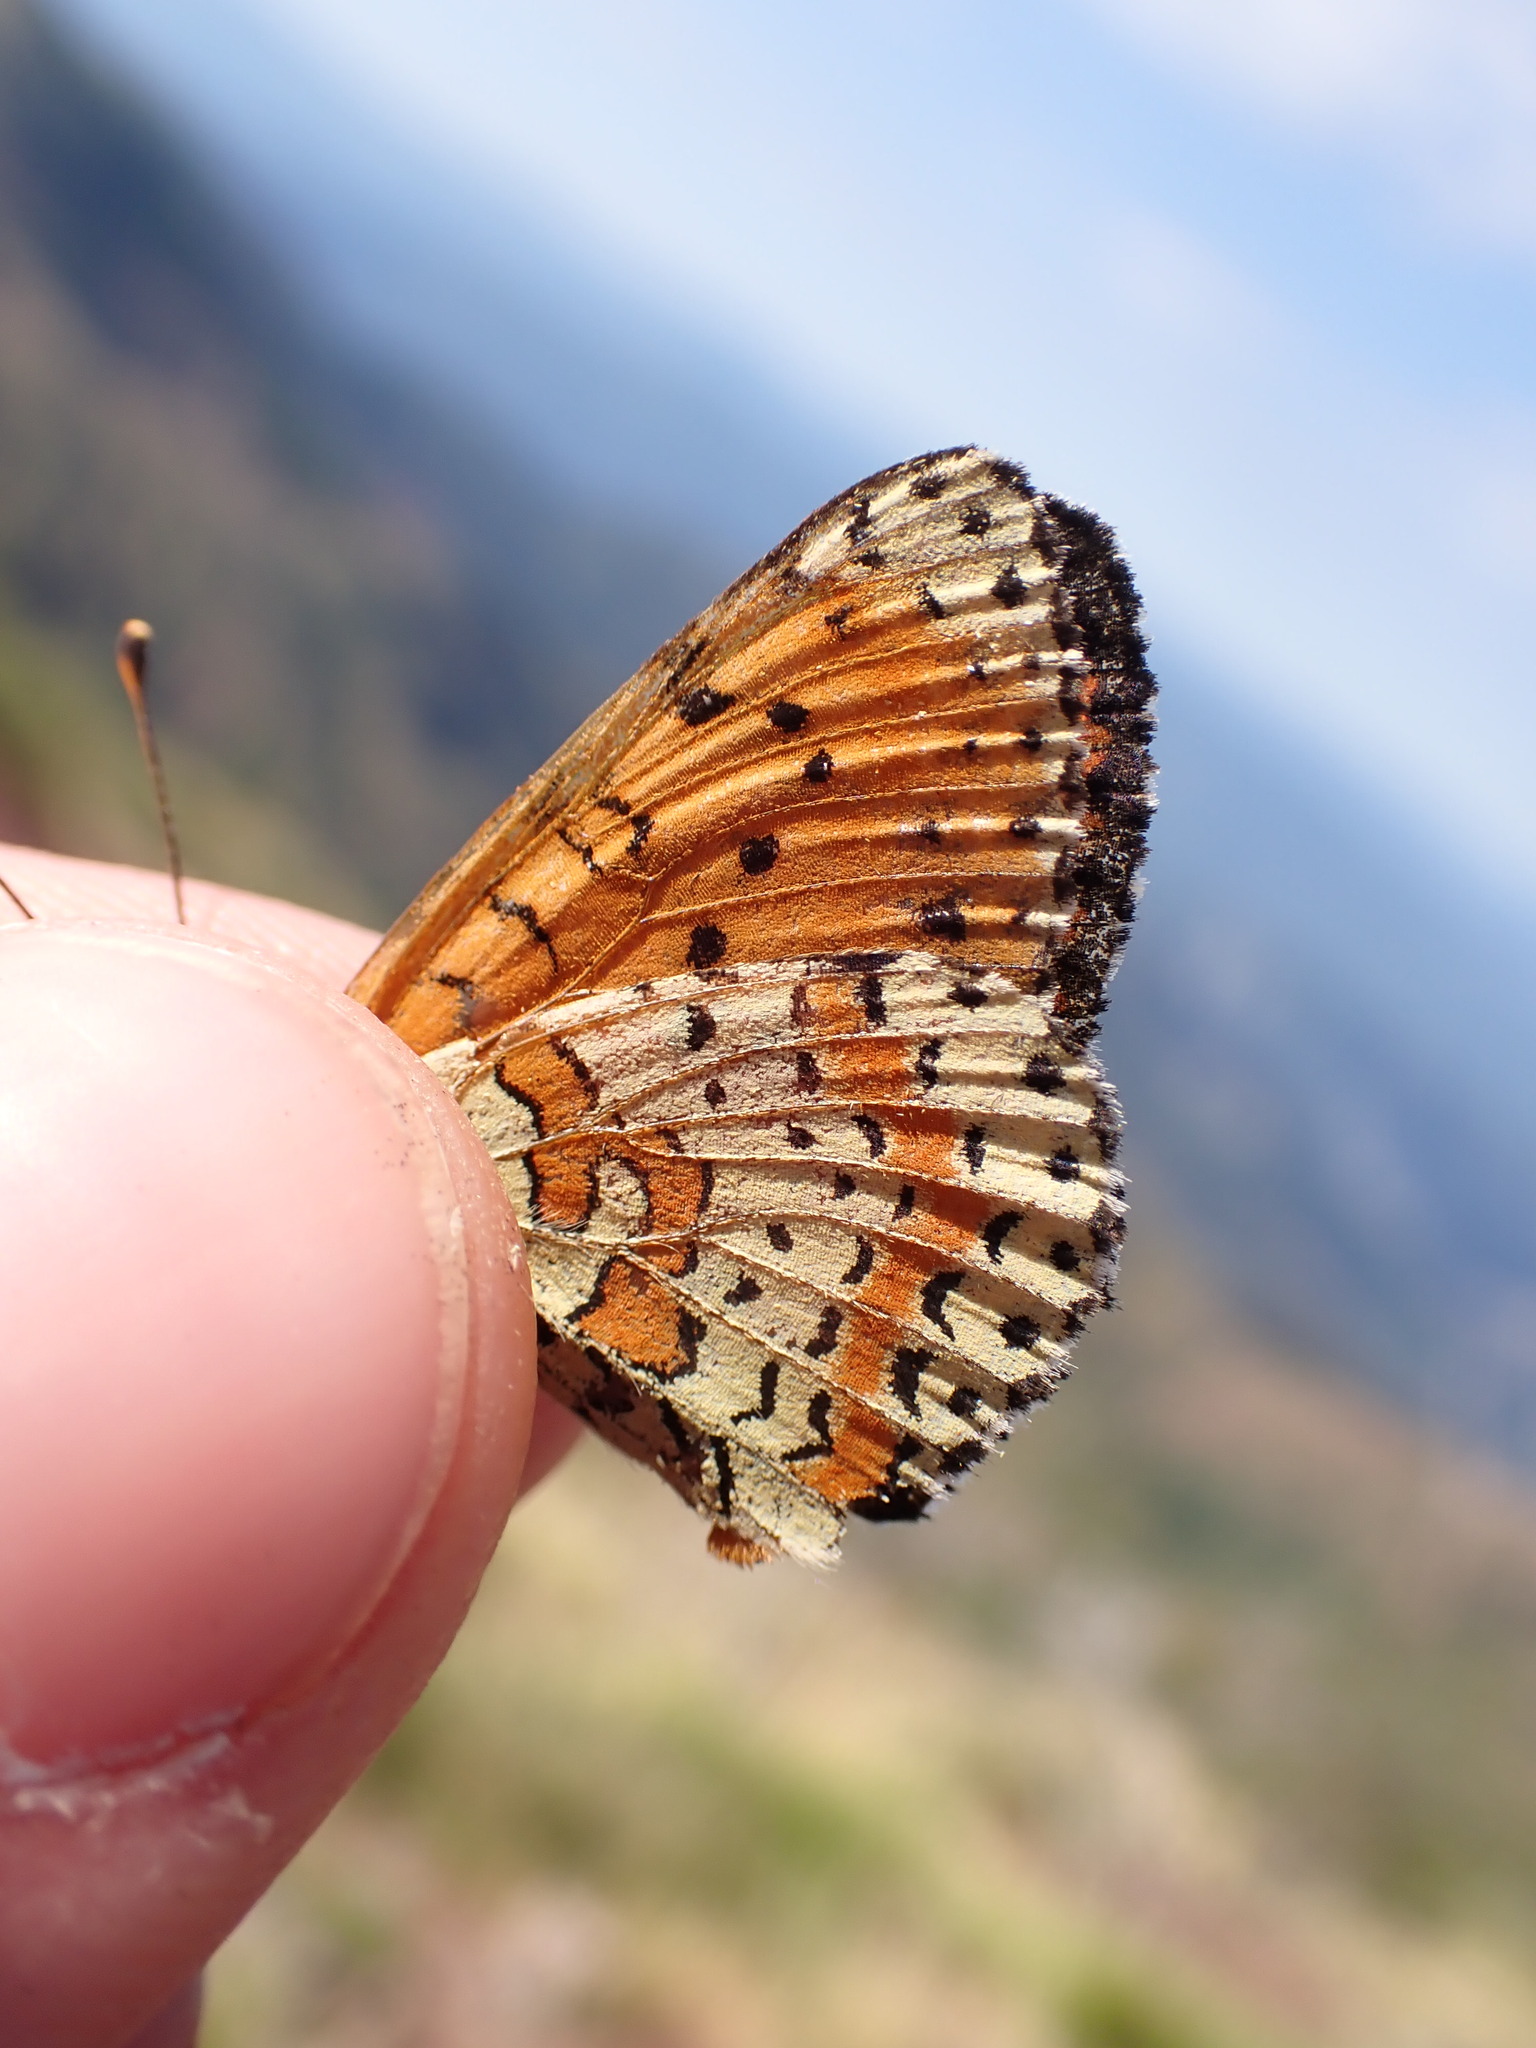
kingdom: Animalia
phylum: Arthropoda
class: Insecta
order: Lepidoptera
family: Nymphalidae
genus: Melitaea
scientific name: Melitaea didyma
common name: Spotted fritillary
